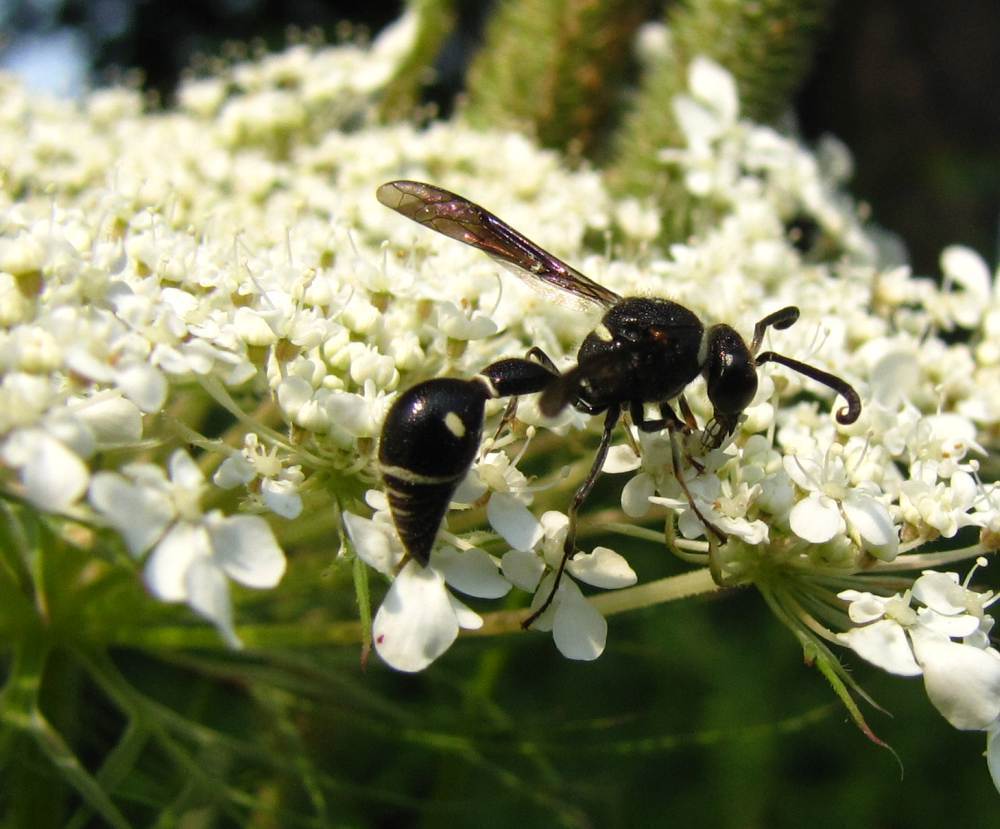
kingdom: Animalia
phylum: Arthropoda
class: Insecta
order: Hymenoptera
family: Vespidae
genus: Eumenes
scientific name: Eumenes fraternus
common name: Fraternal potter wasp
